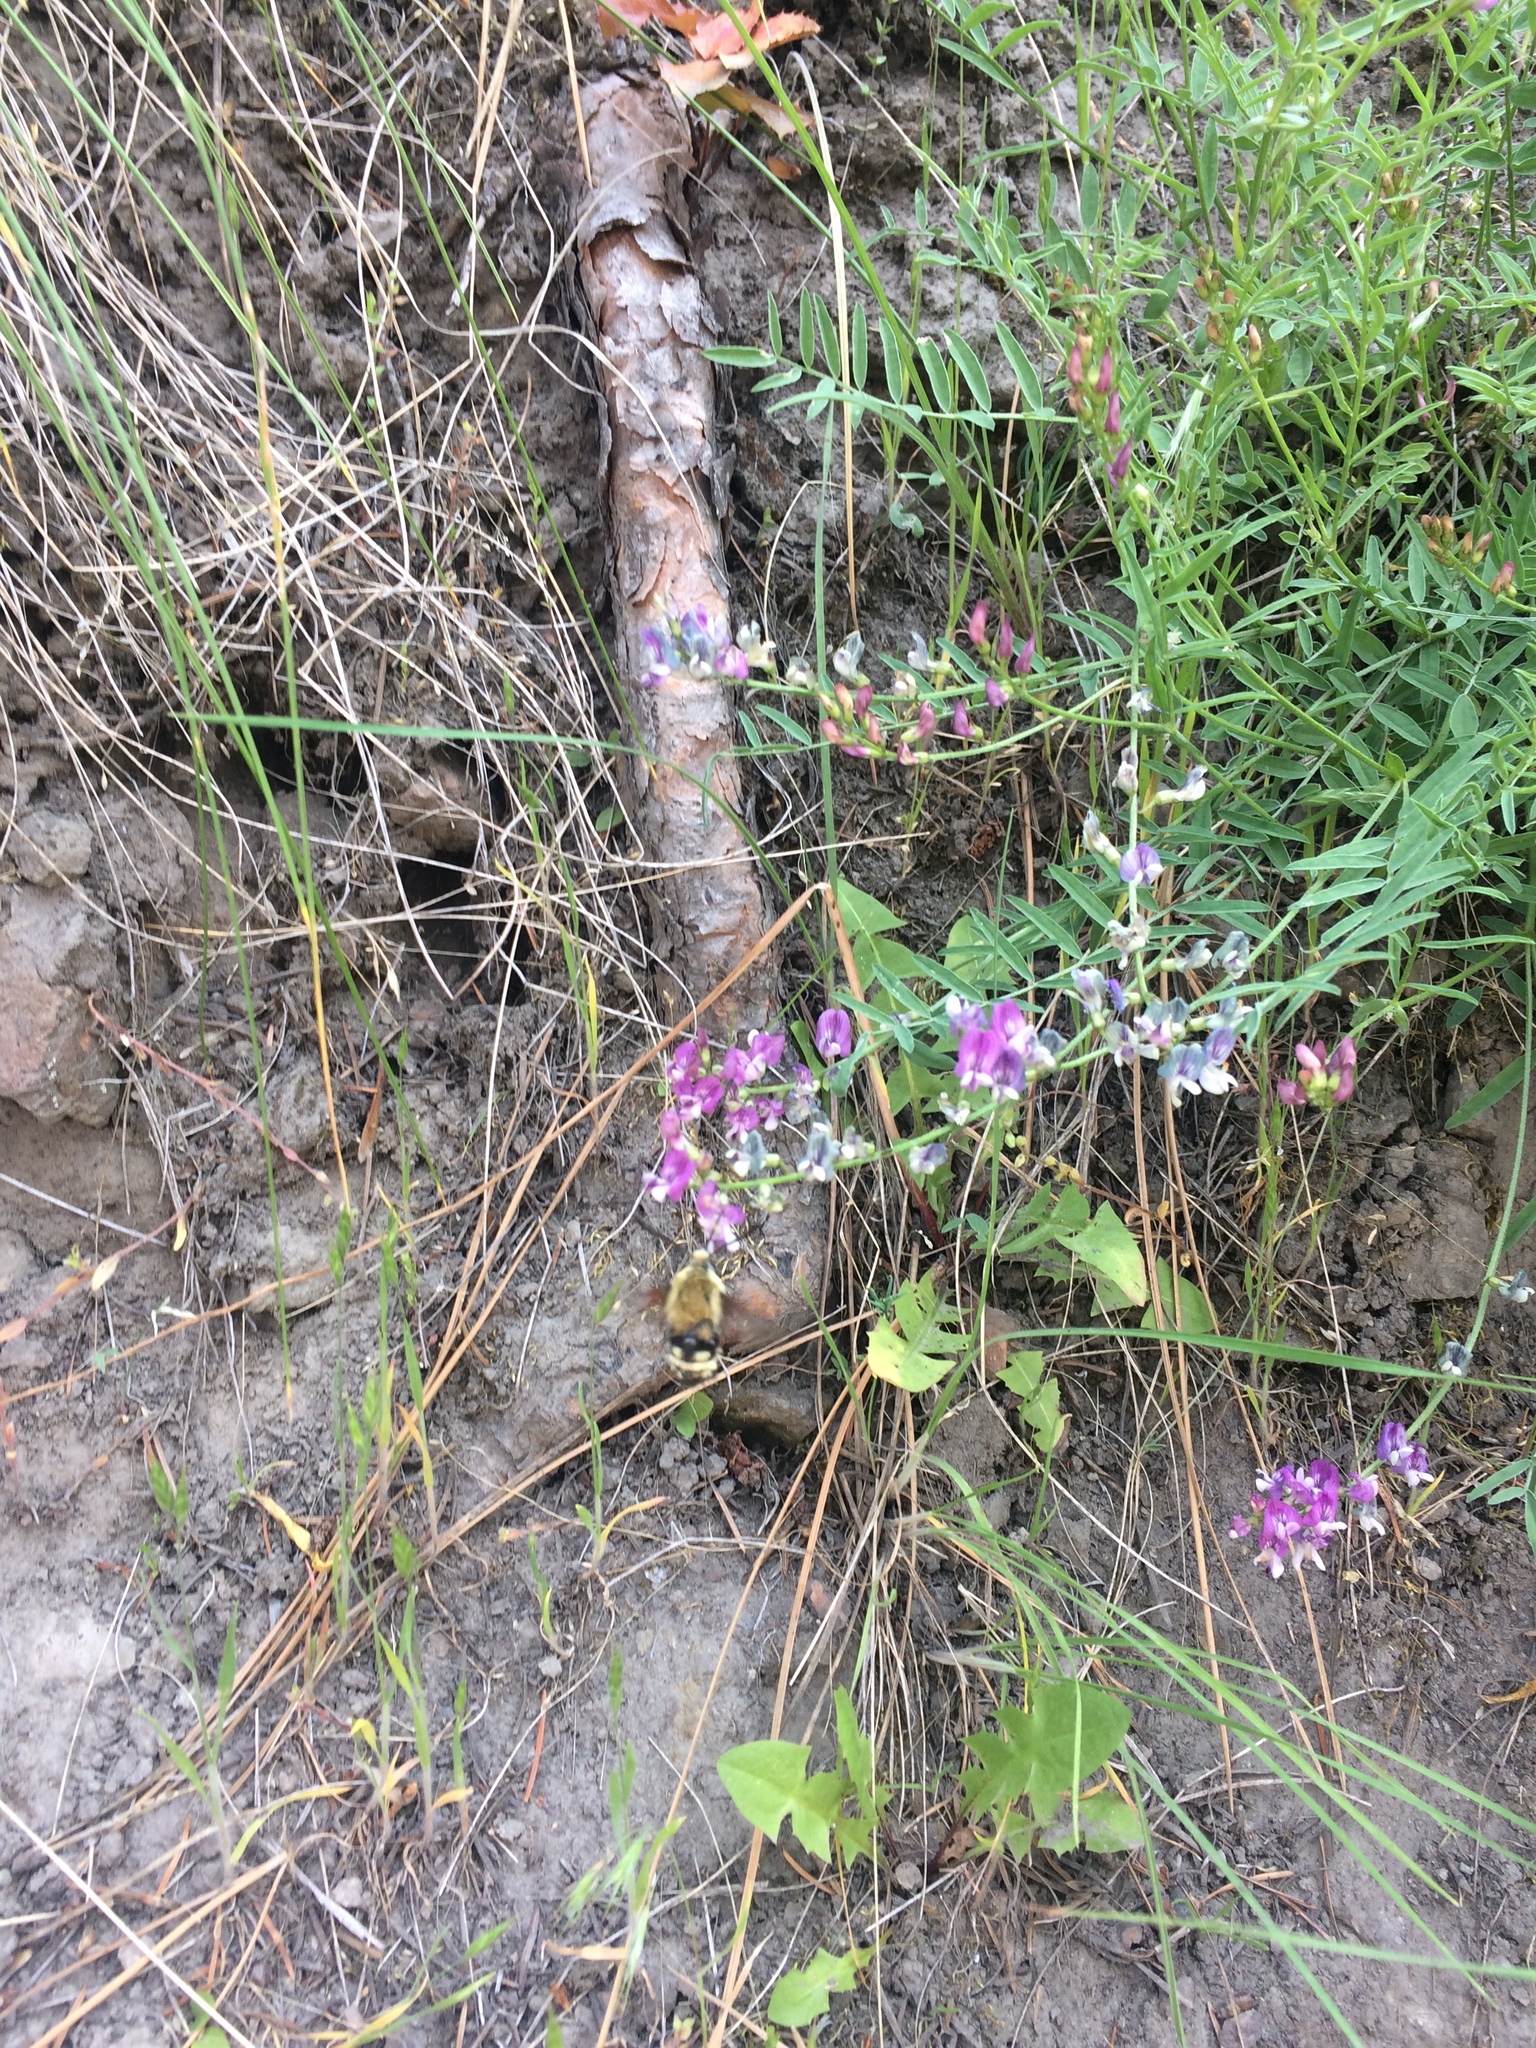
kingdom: Animalia
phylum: Arthropoda
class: Insecta
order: Lepidoptera
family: Sphingidae
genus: Hemaris
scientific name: Hemaris thetis
